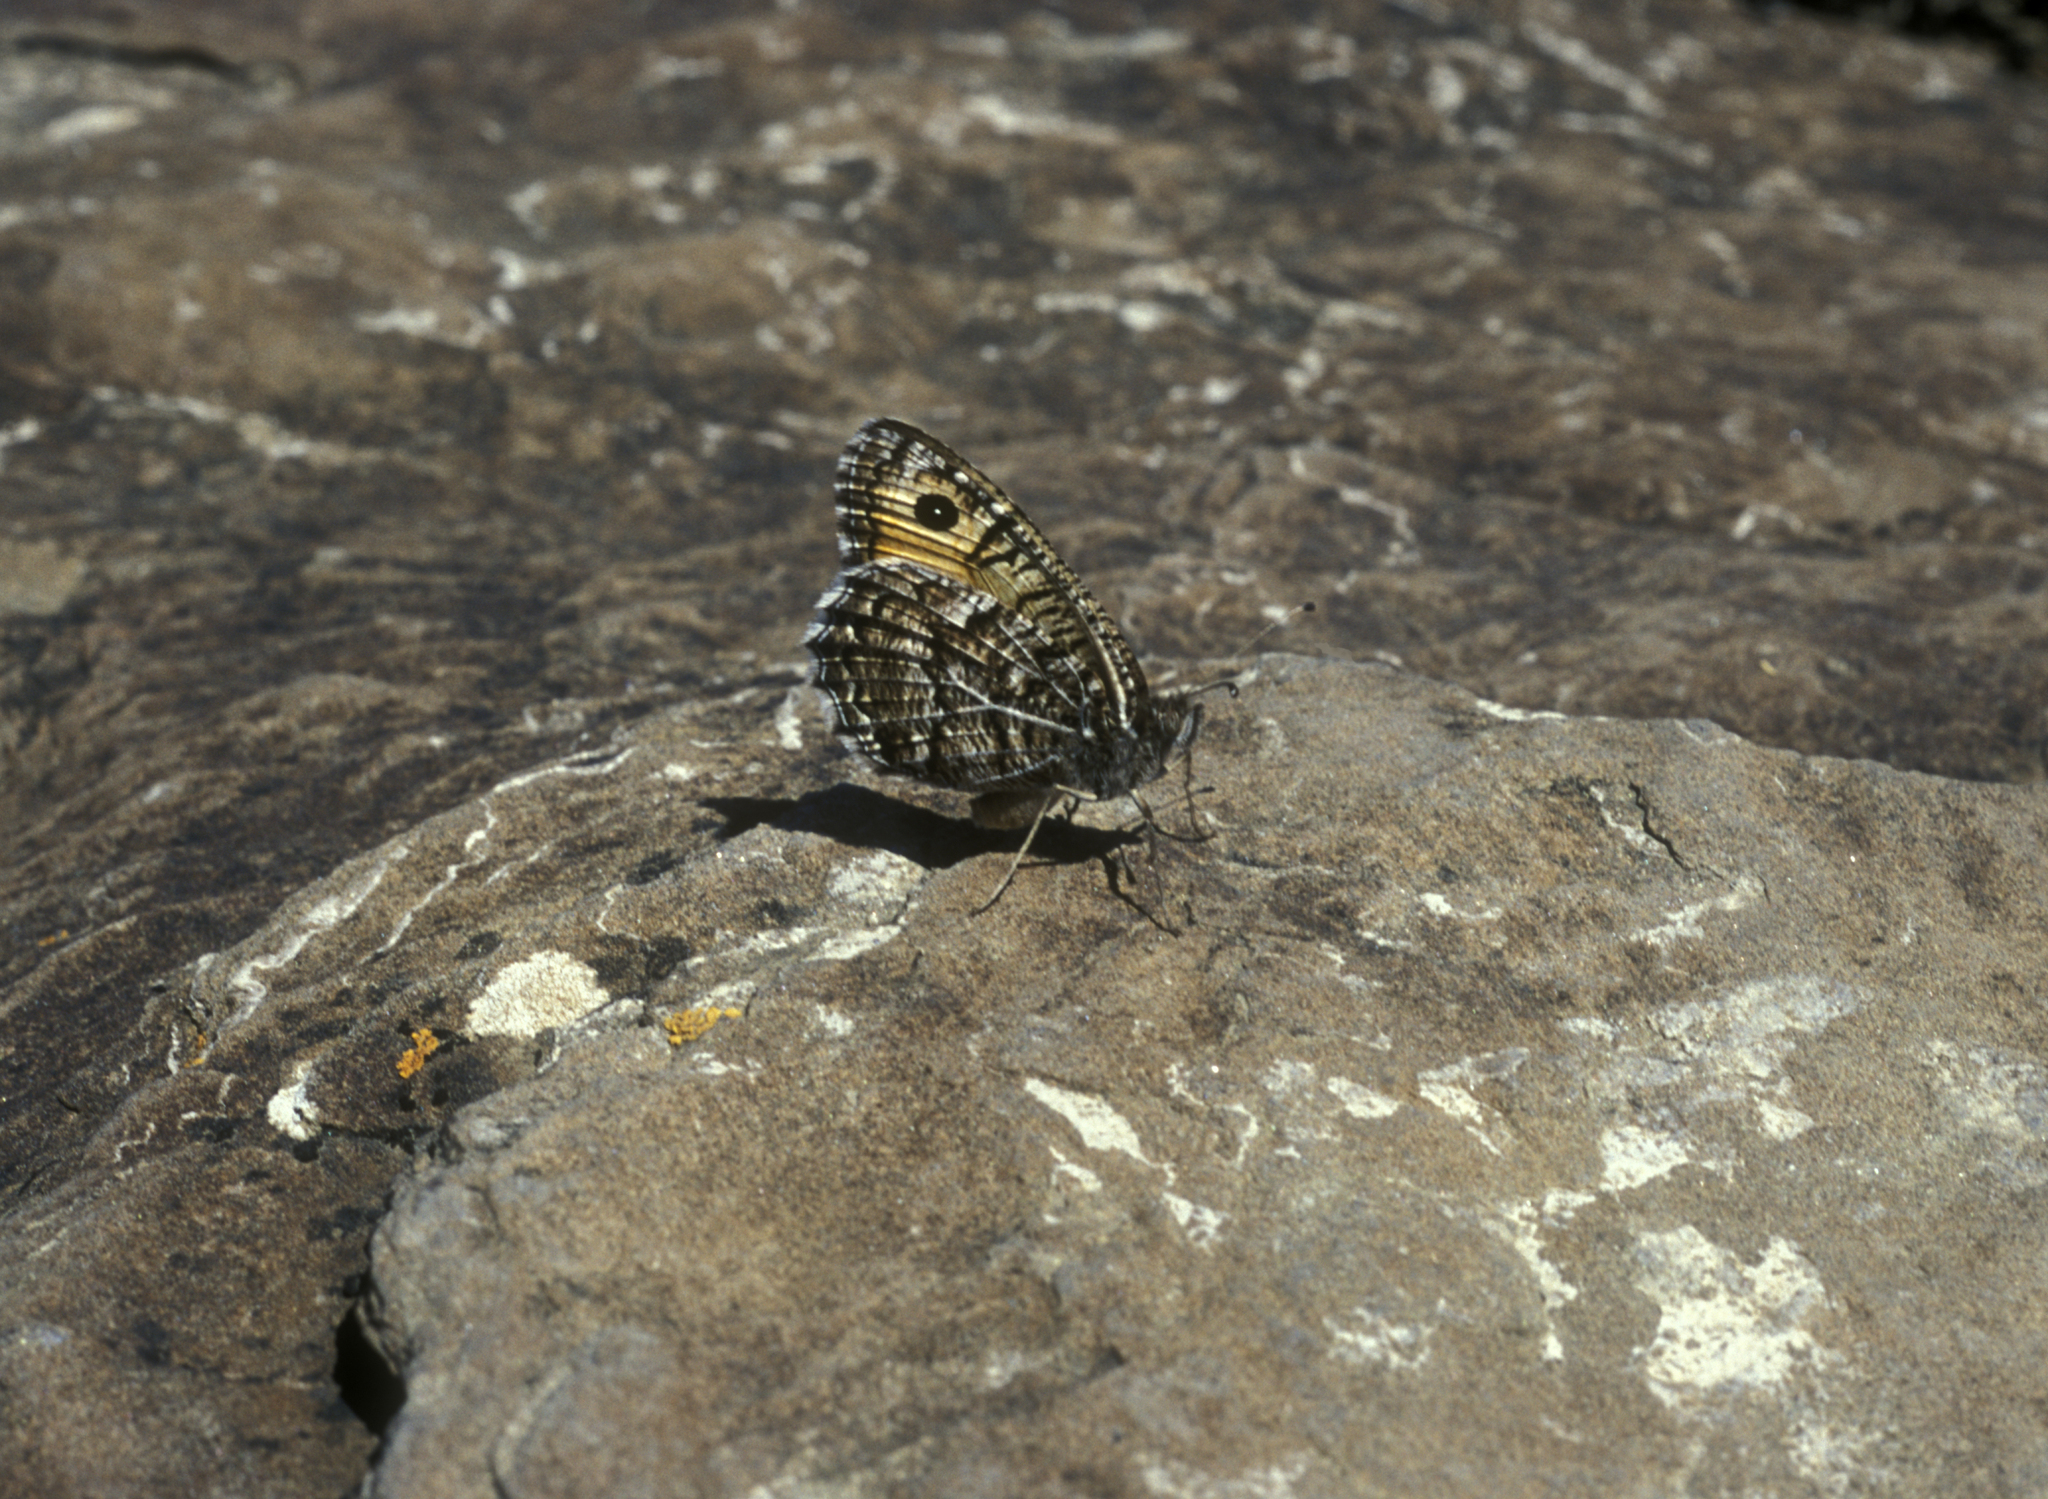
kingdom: Animalia
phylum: Arthropoda
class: Insecta
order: Lepidoptera
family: Nymphalidae
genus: Pseudochazara
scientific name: Pseudochazara hippolyte
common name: Nevada grayling
